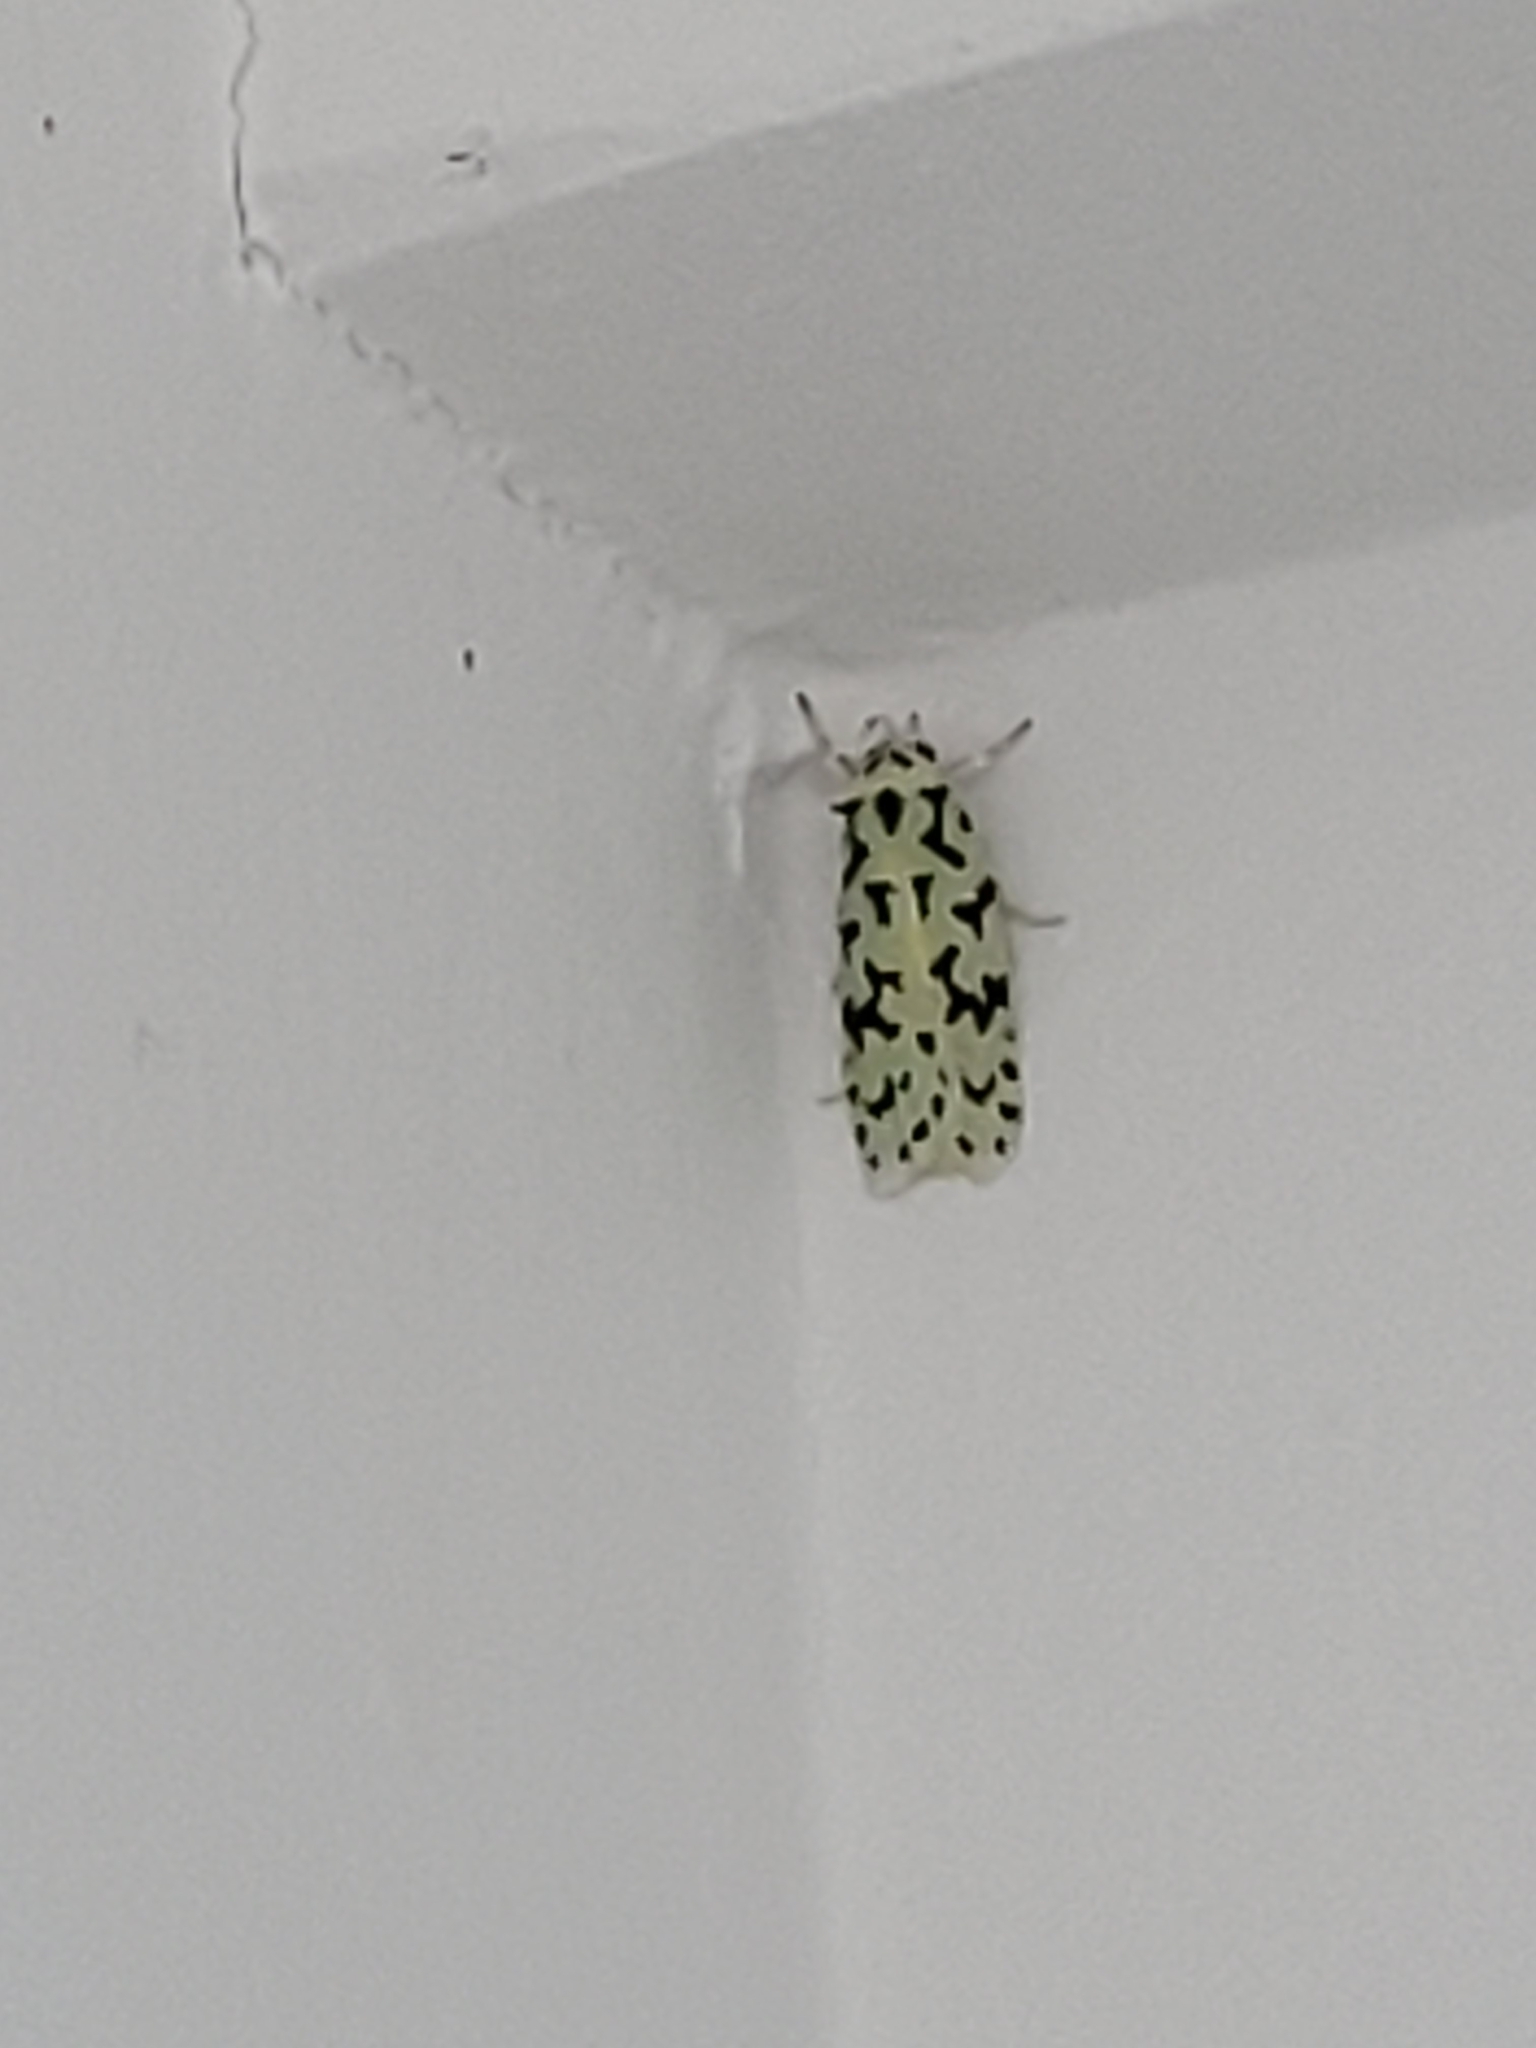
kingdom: Animalia
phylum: Arthropoda
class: Insecta
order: Lepidoptera
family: Oecophoridae
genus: Izatha
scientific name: Izatha huttoni
